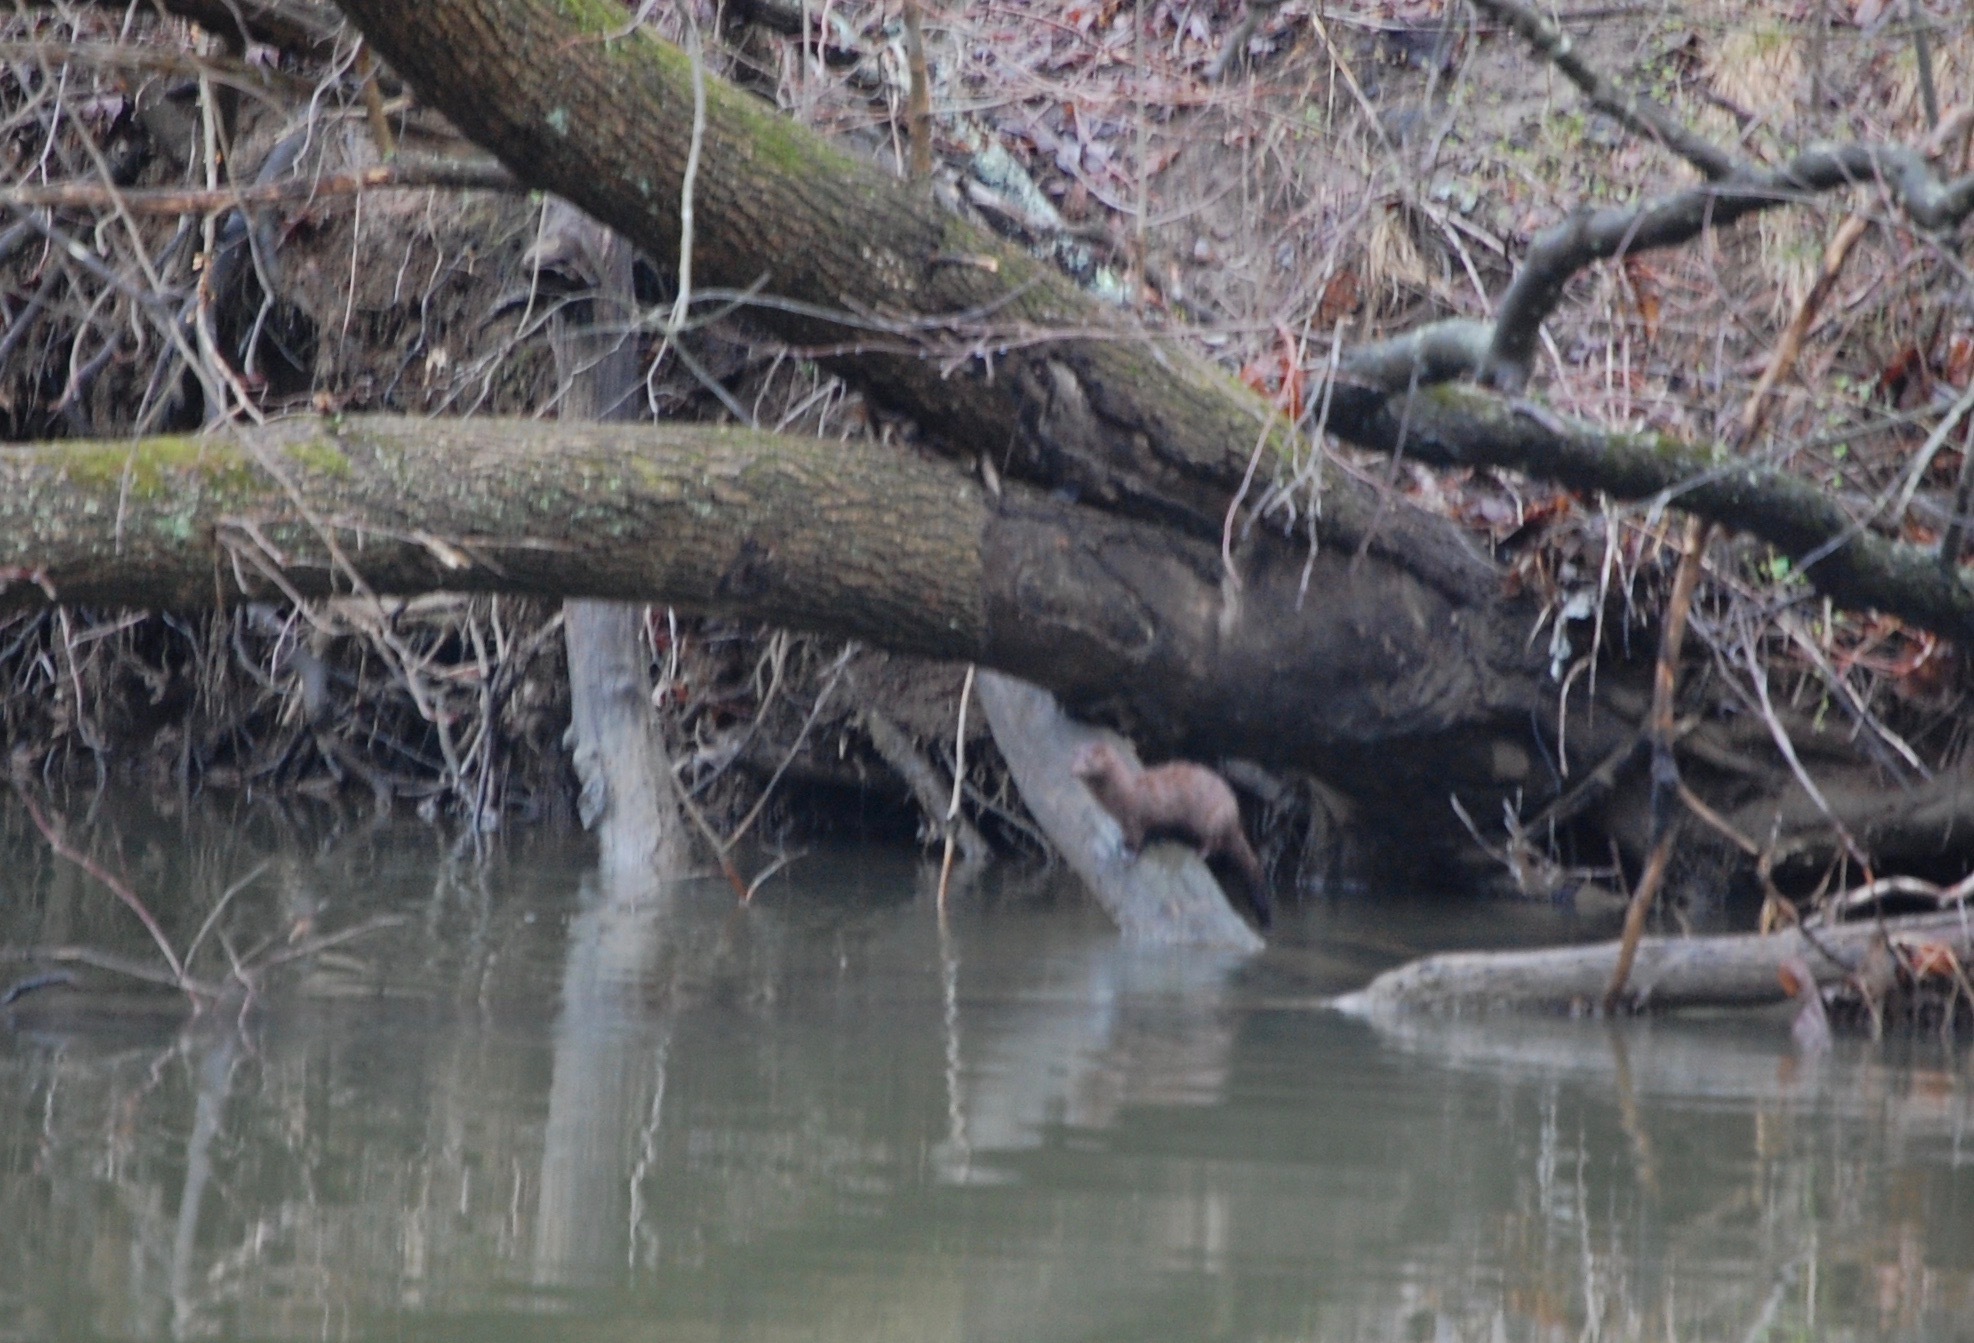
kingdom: Animalia
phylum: Chordata
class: Mammalia
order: Carnivora
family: Mustelidae
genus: Mustela
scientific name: Mustela
